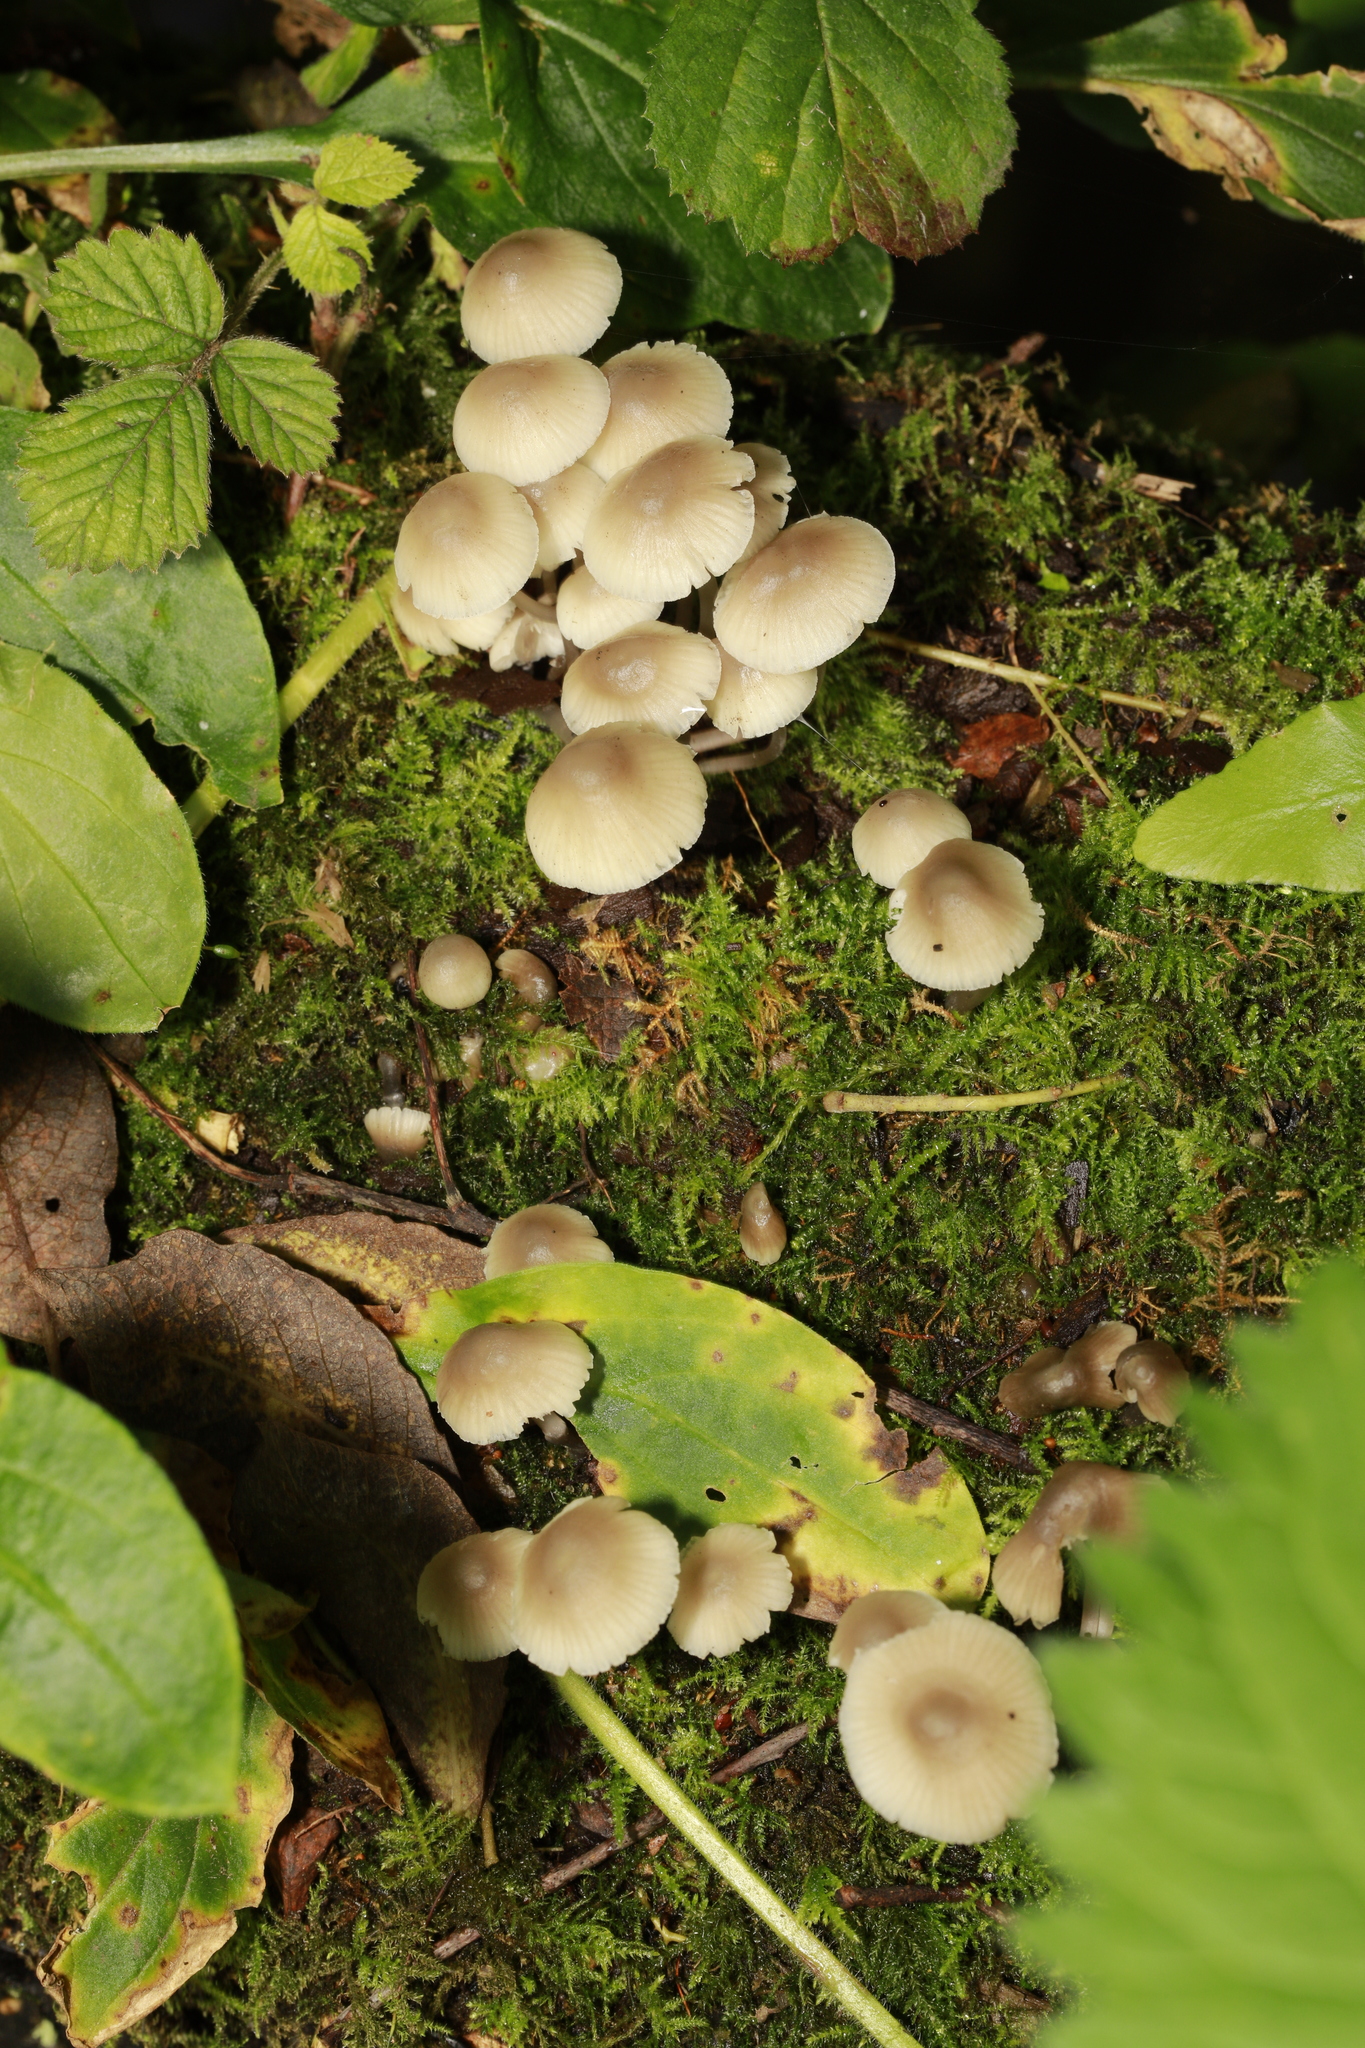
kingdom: Fungi
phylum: Basidiomycota
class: Agaricomycetes
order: Agaricales
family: Mycenaceae
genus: Mycena
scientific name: Mycena
